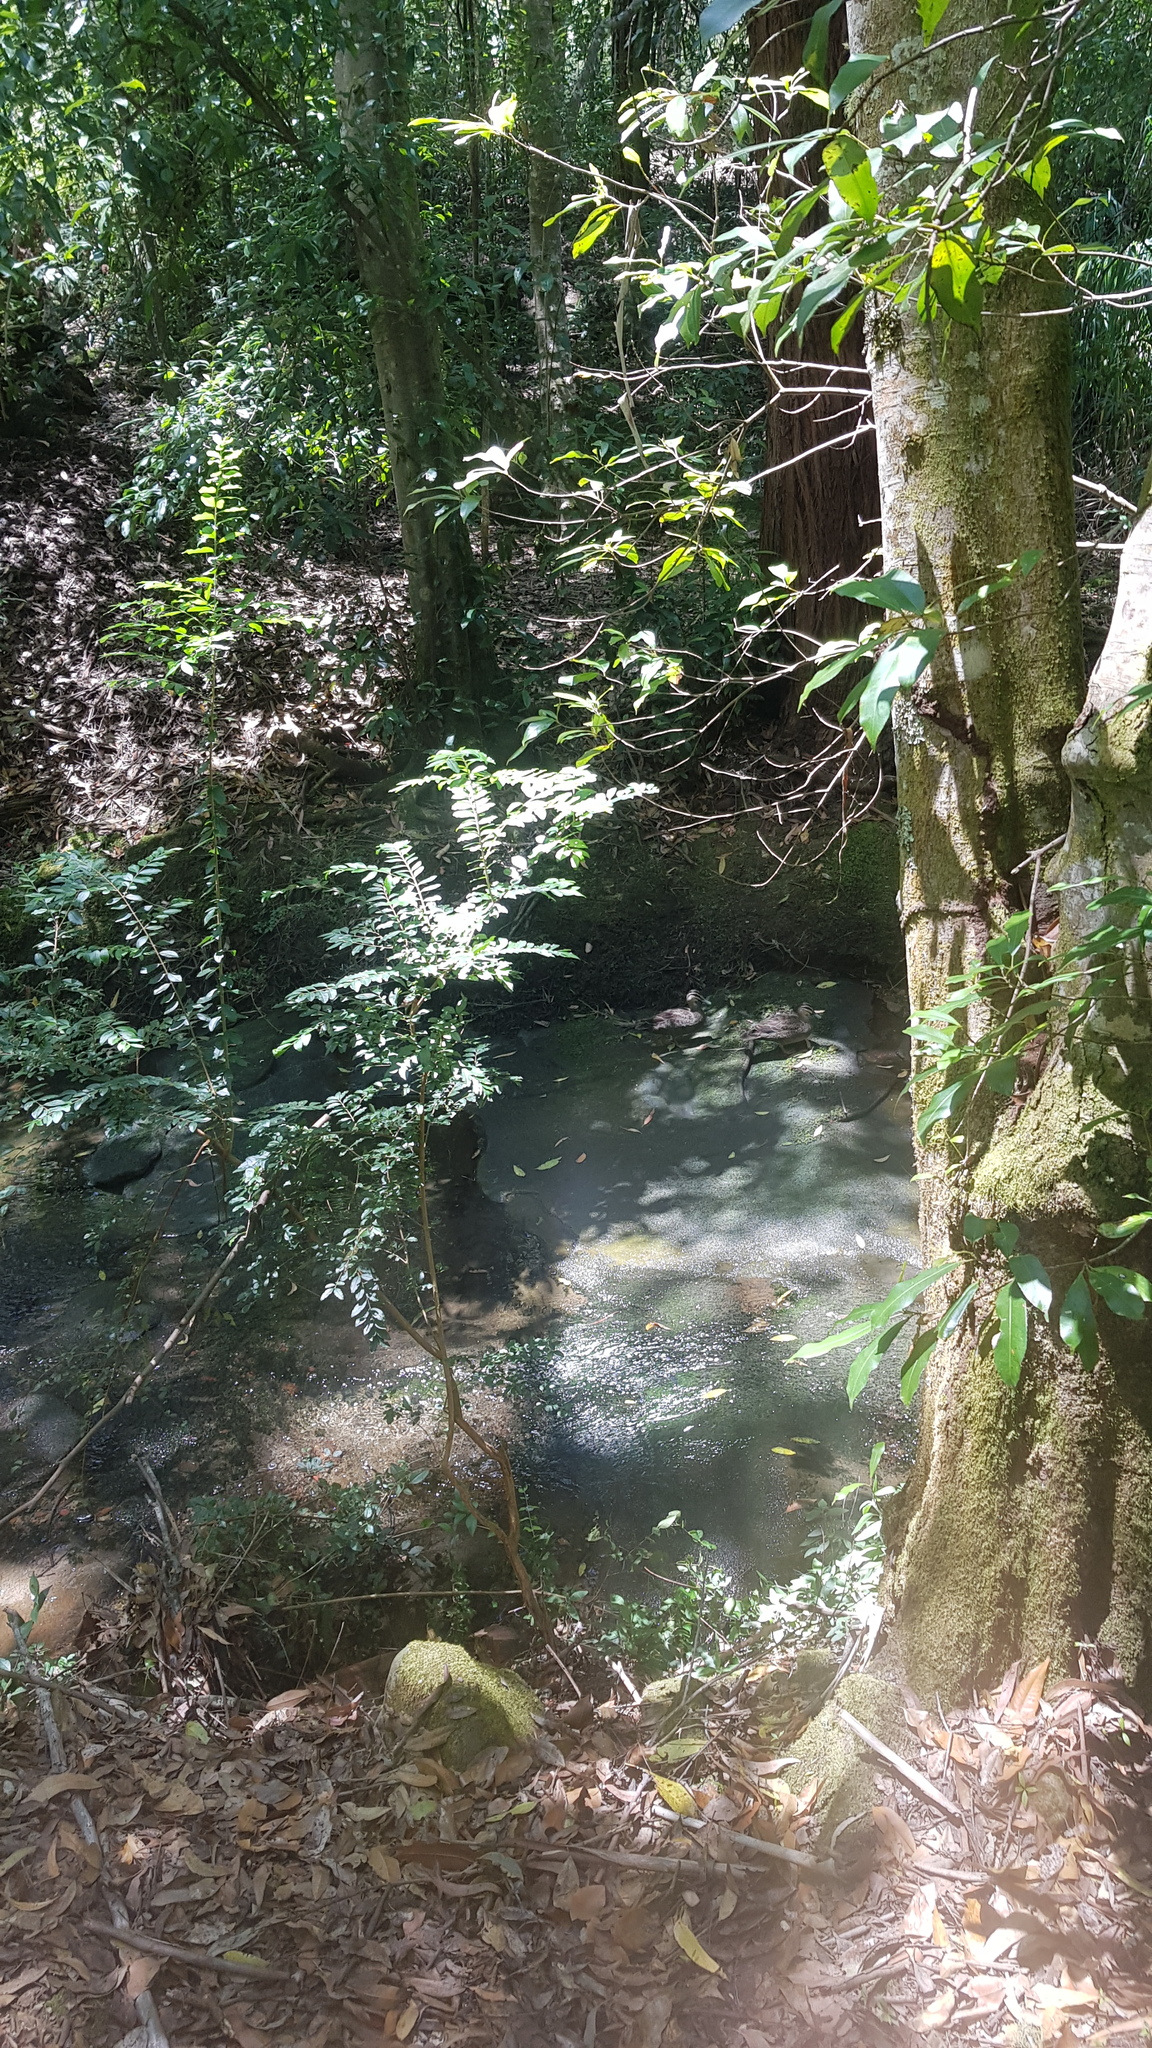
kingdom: Animalia
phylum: Chordata
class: Aves
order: Anseriformes
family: Anatidae
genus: Anas
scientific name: Anas superciliosa
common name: Pacific black duck
